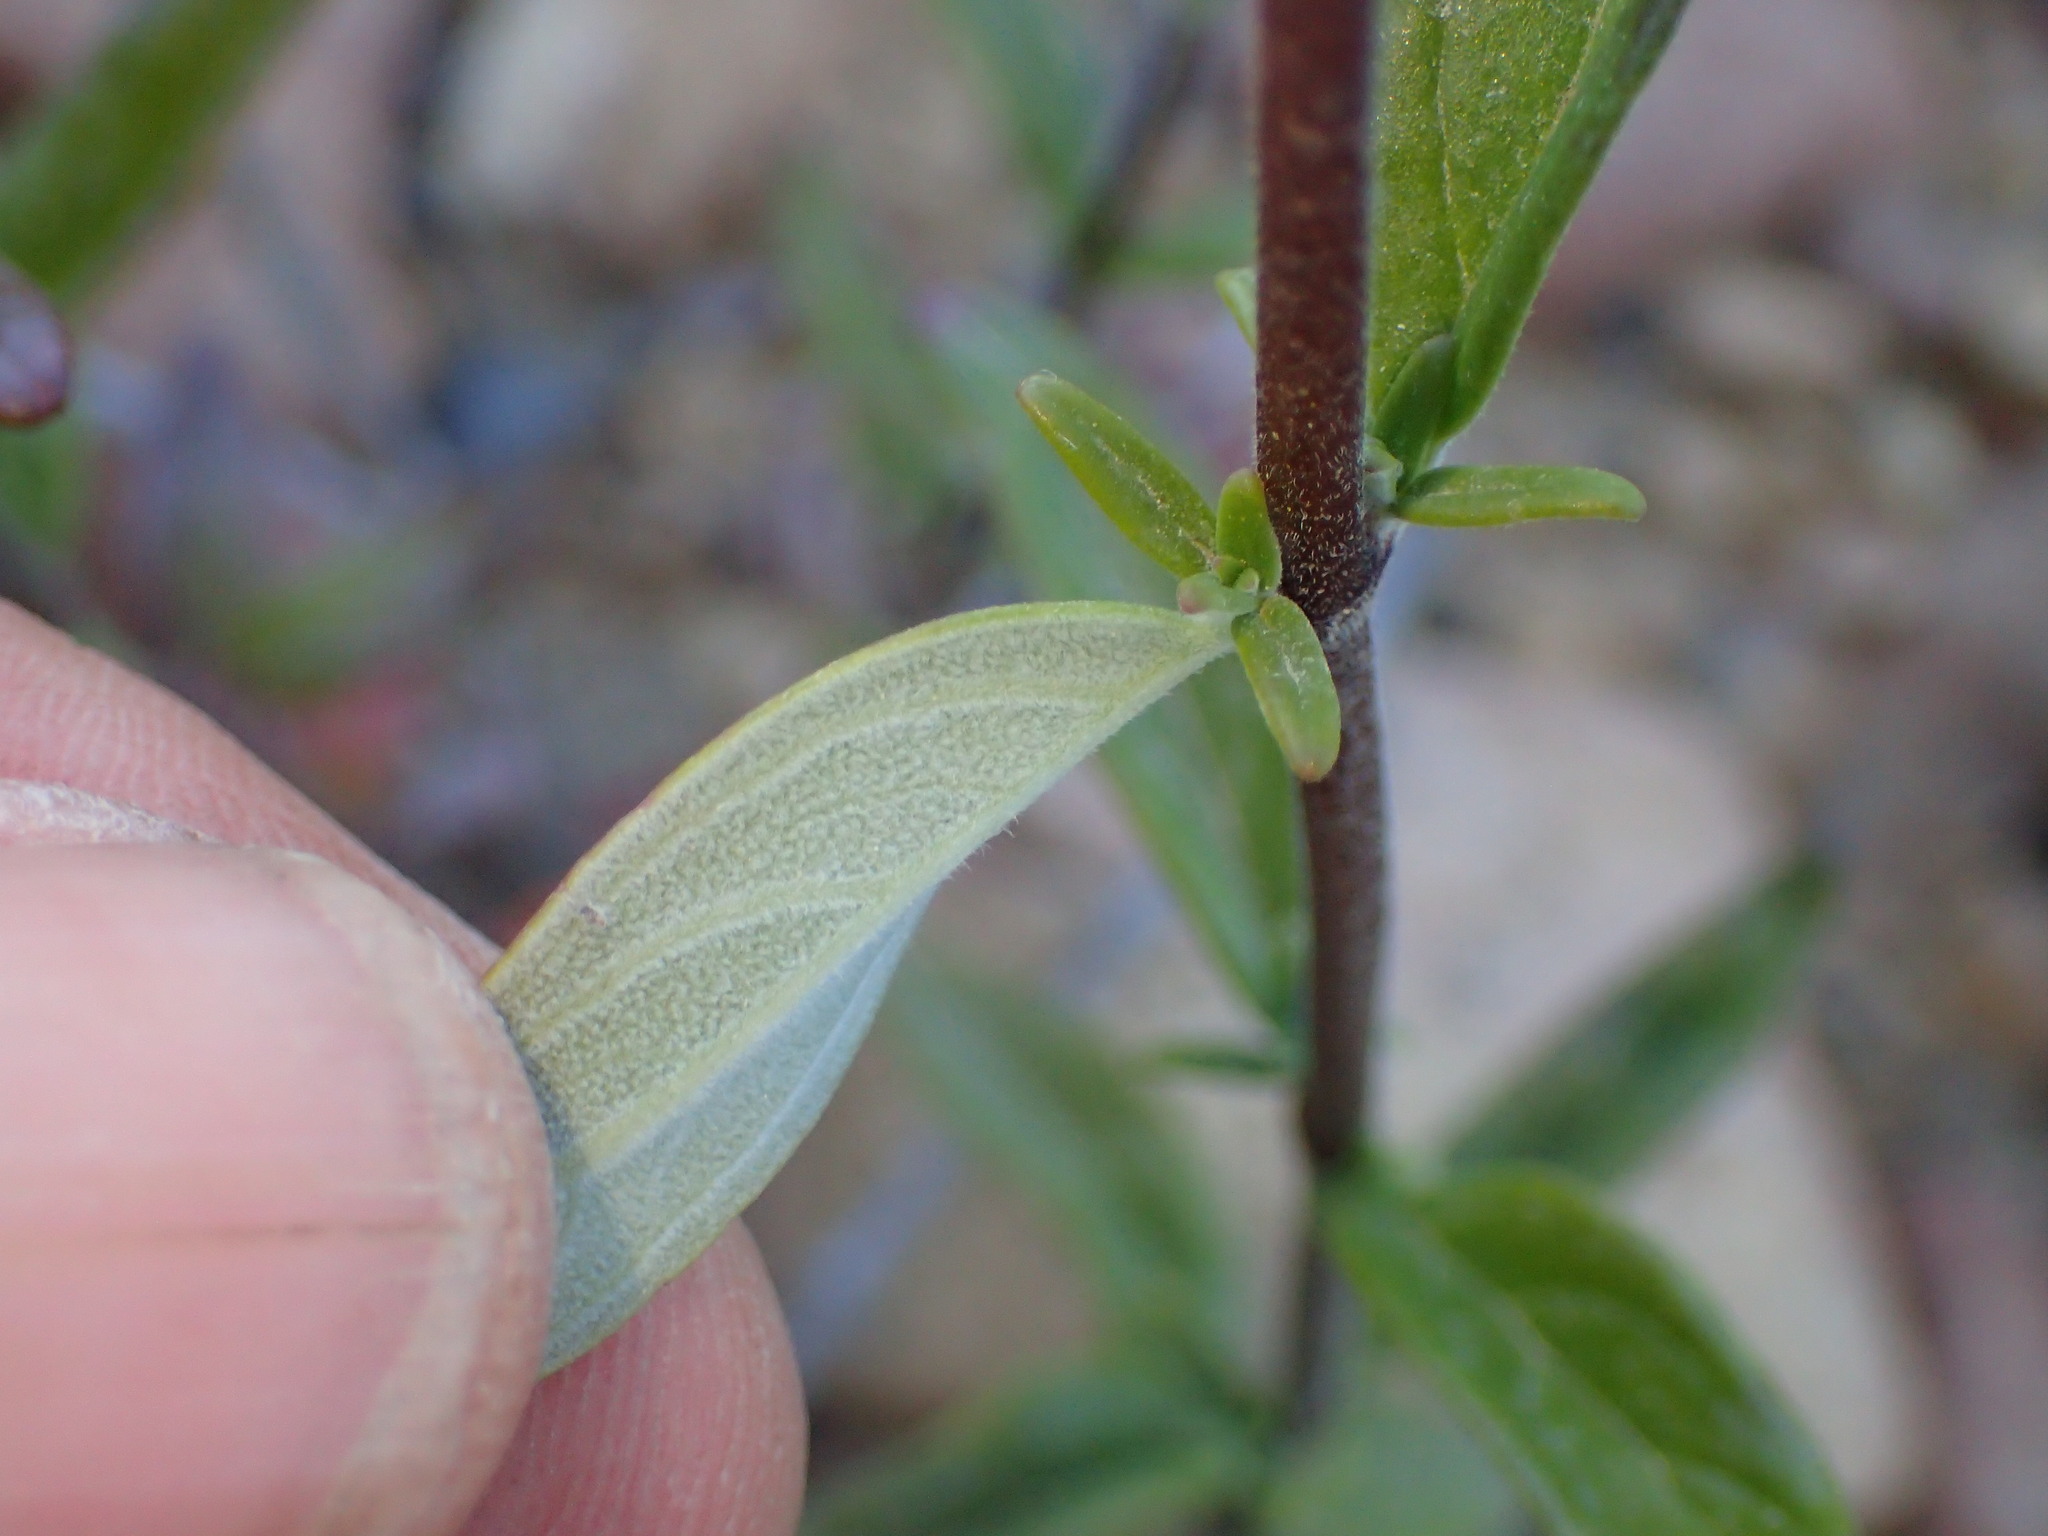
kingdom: Plantae
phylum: Tracheophyta
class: Magnoliopsida
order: Lamiales
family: Lamiaceae
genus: Monardella
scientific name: Monardella hypoleuca
